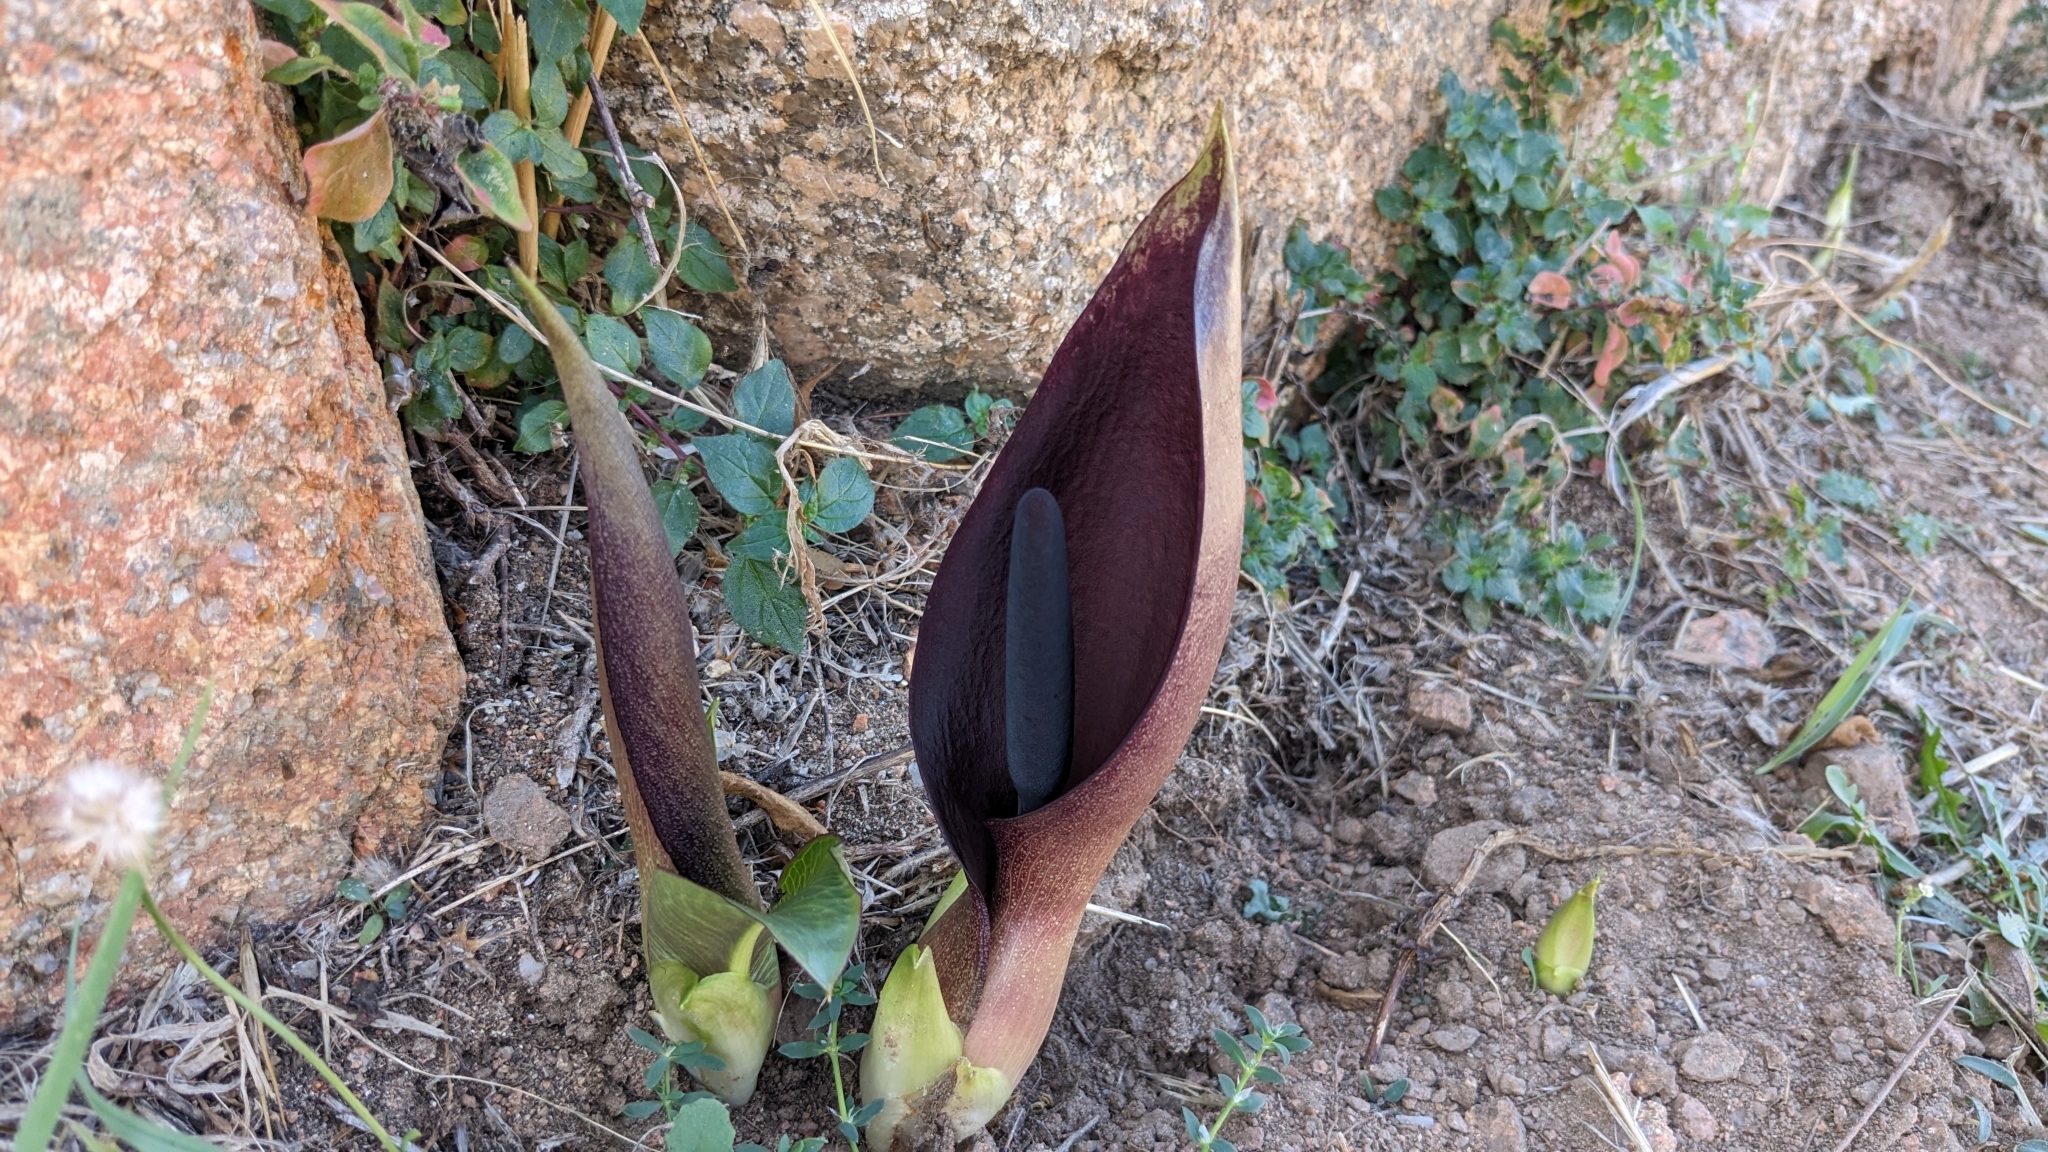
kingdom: Plantae
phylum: Tracheophyta
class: Liliopsida
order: Alismatales
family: Araceae
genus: Arum
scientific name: Arum pictum
